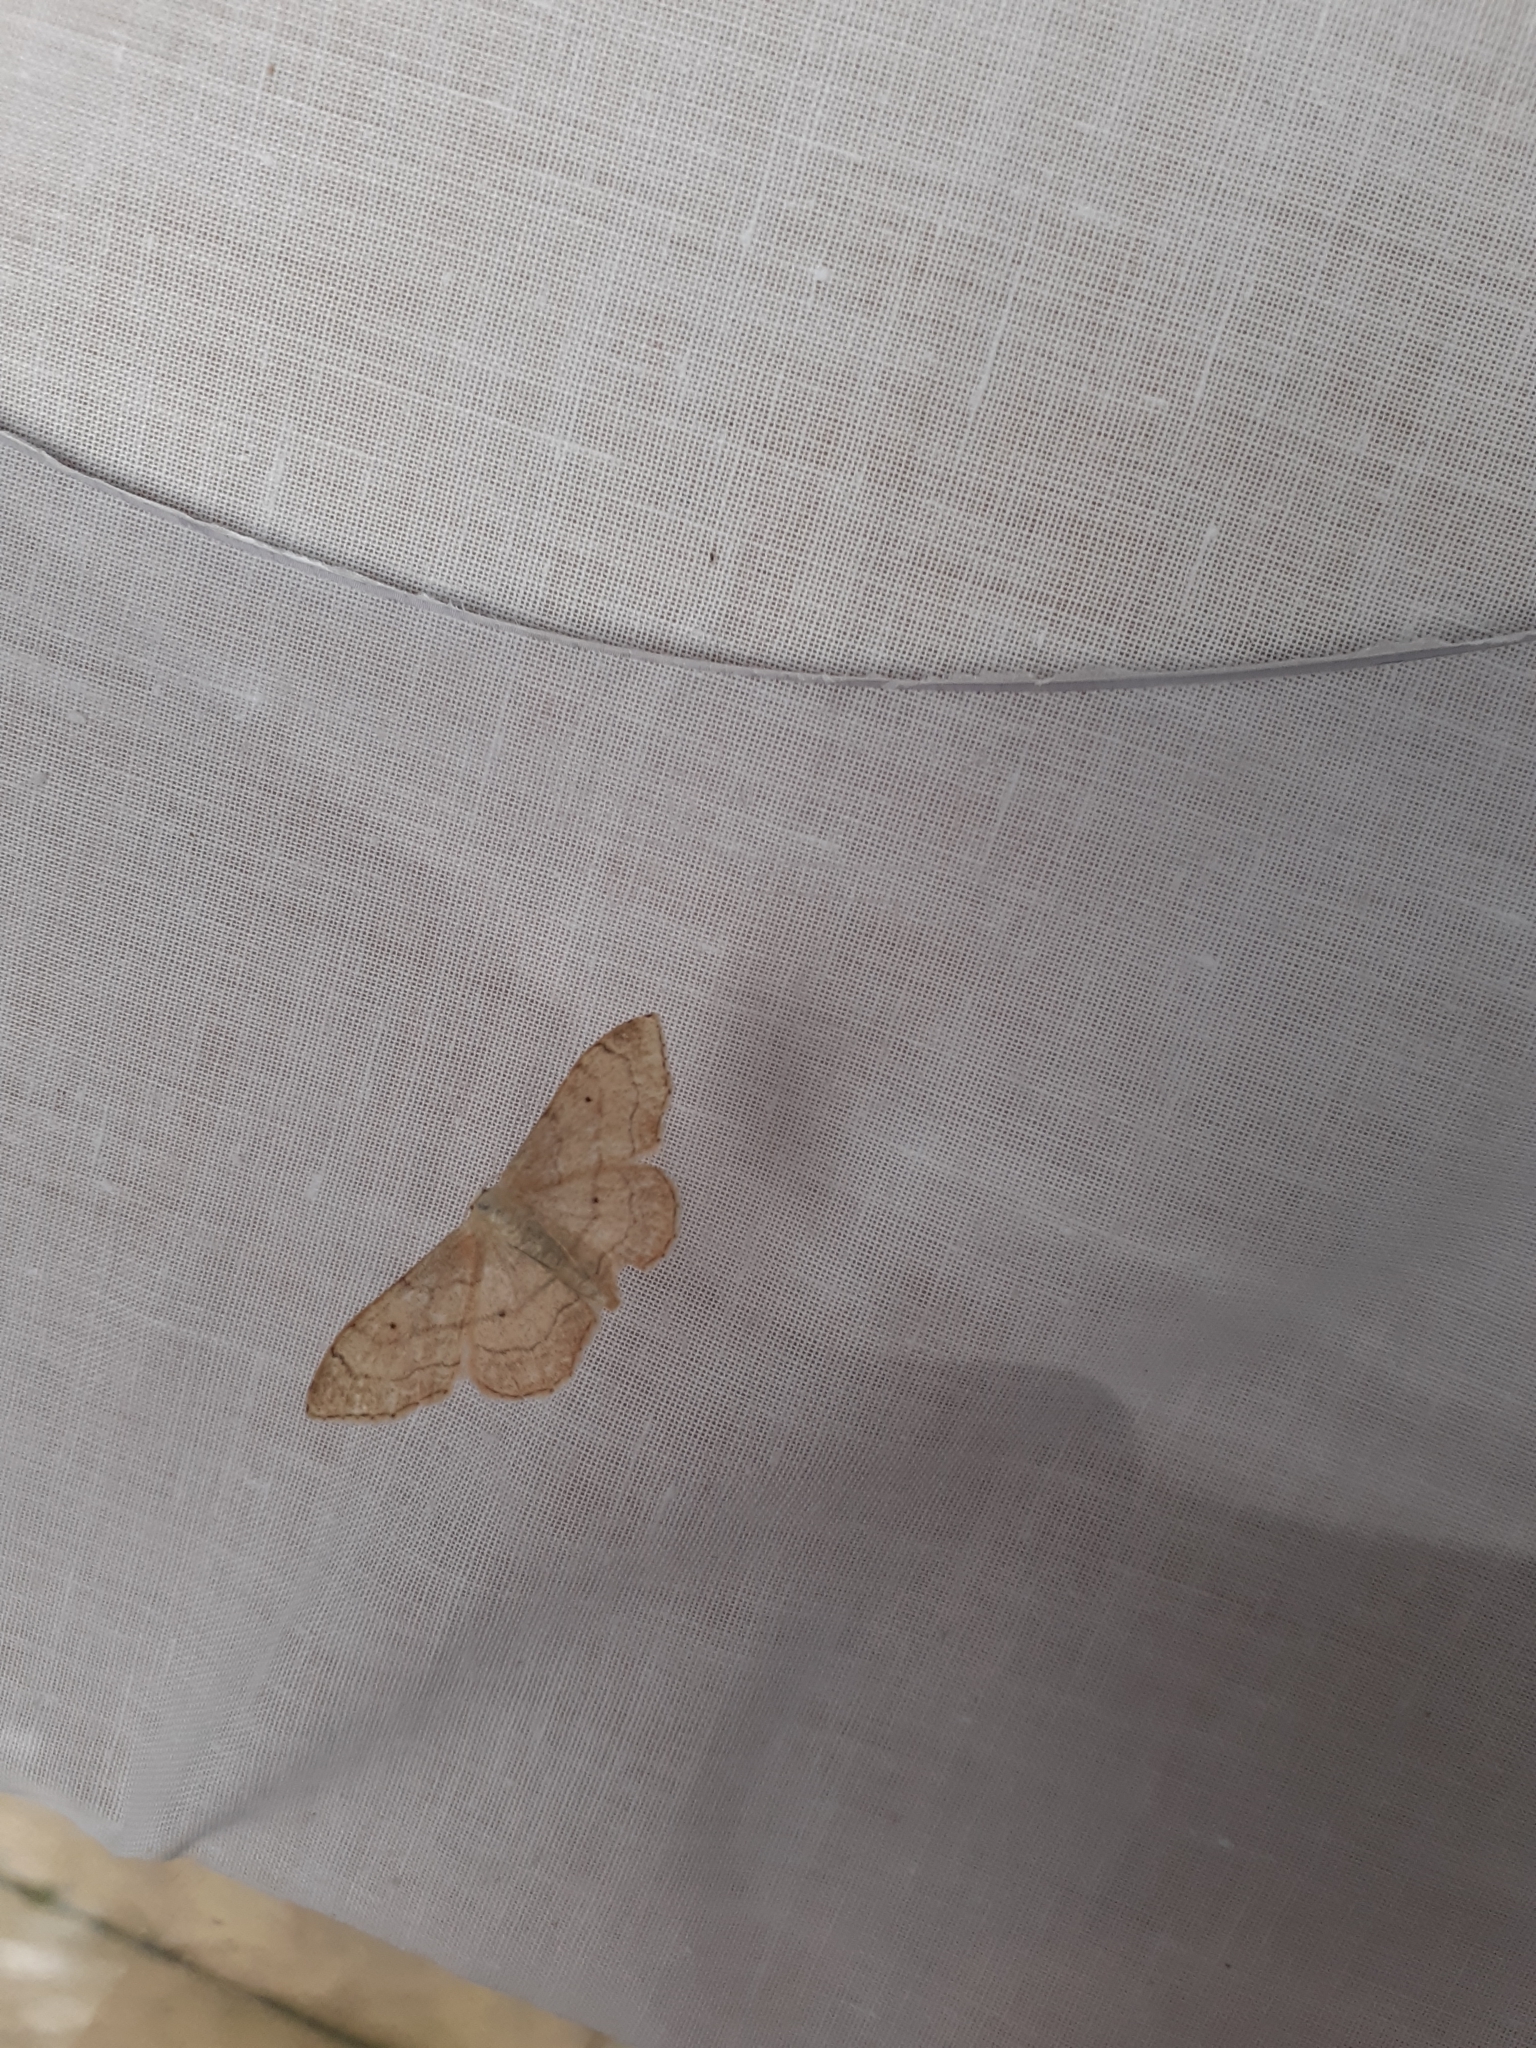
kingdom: Animalia
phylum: Arthropoda
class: Insecta
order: Lepidoptera
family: Geometridae
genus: Idaea
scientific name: Idaea straminata
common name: Plain wave
